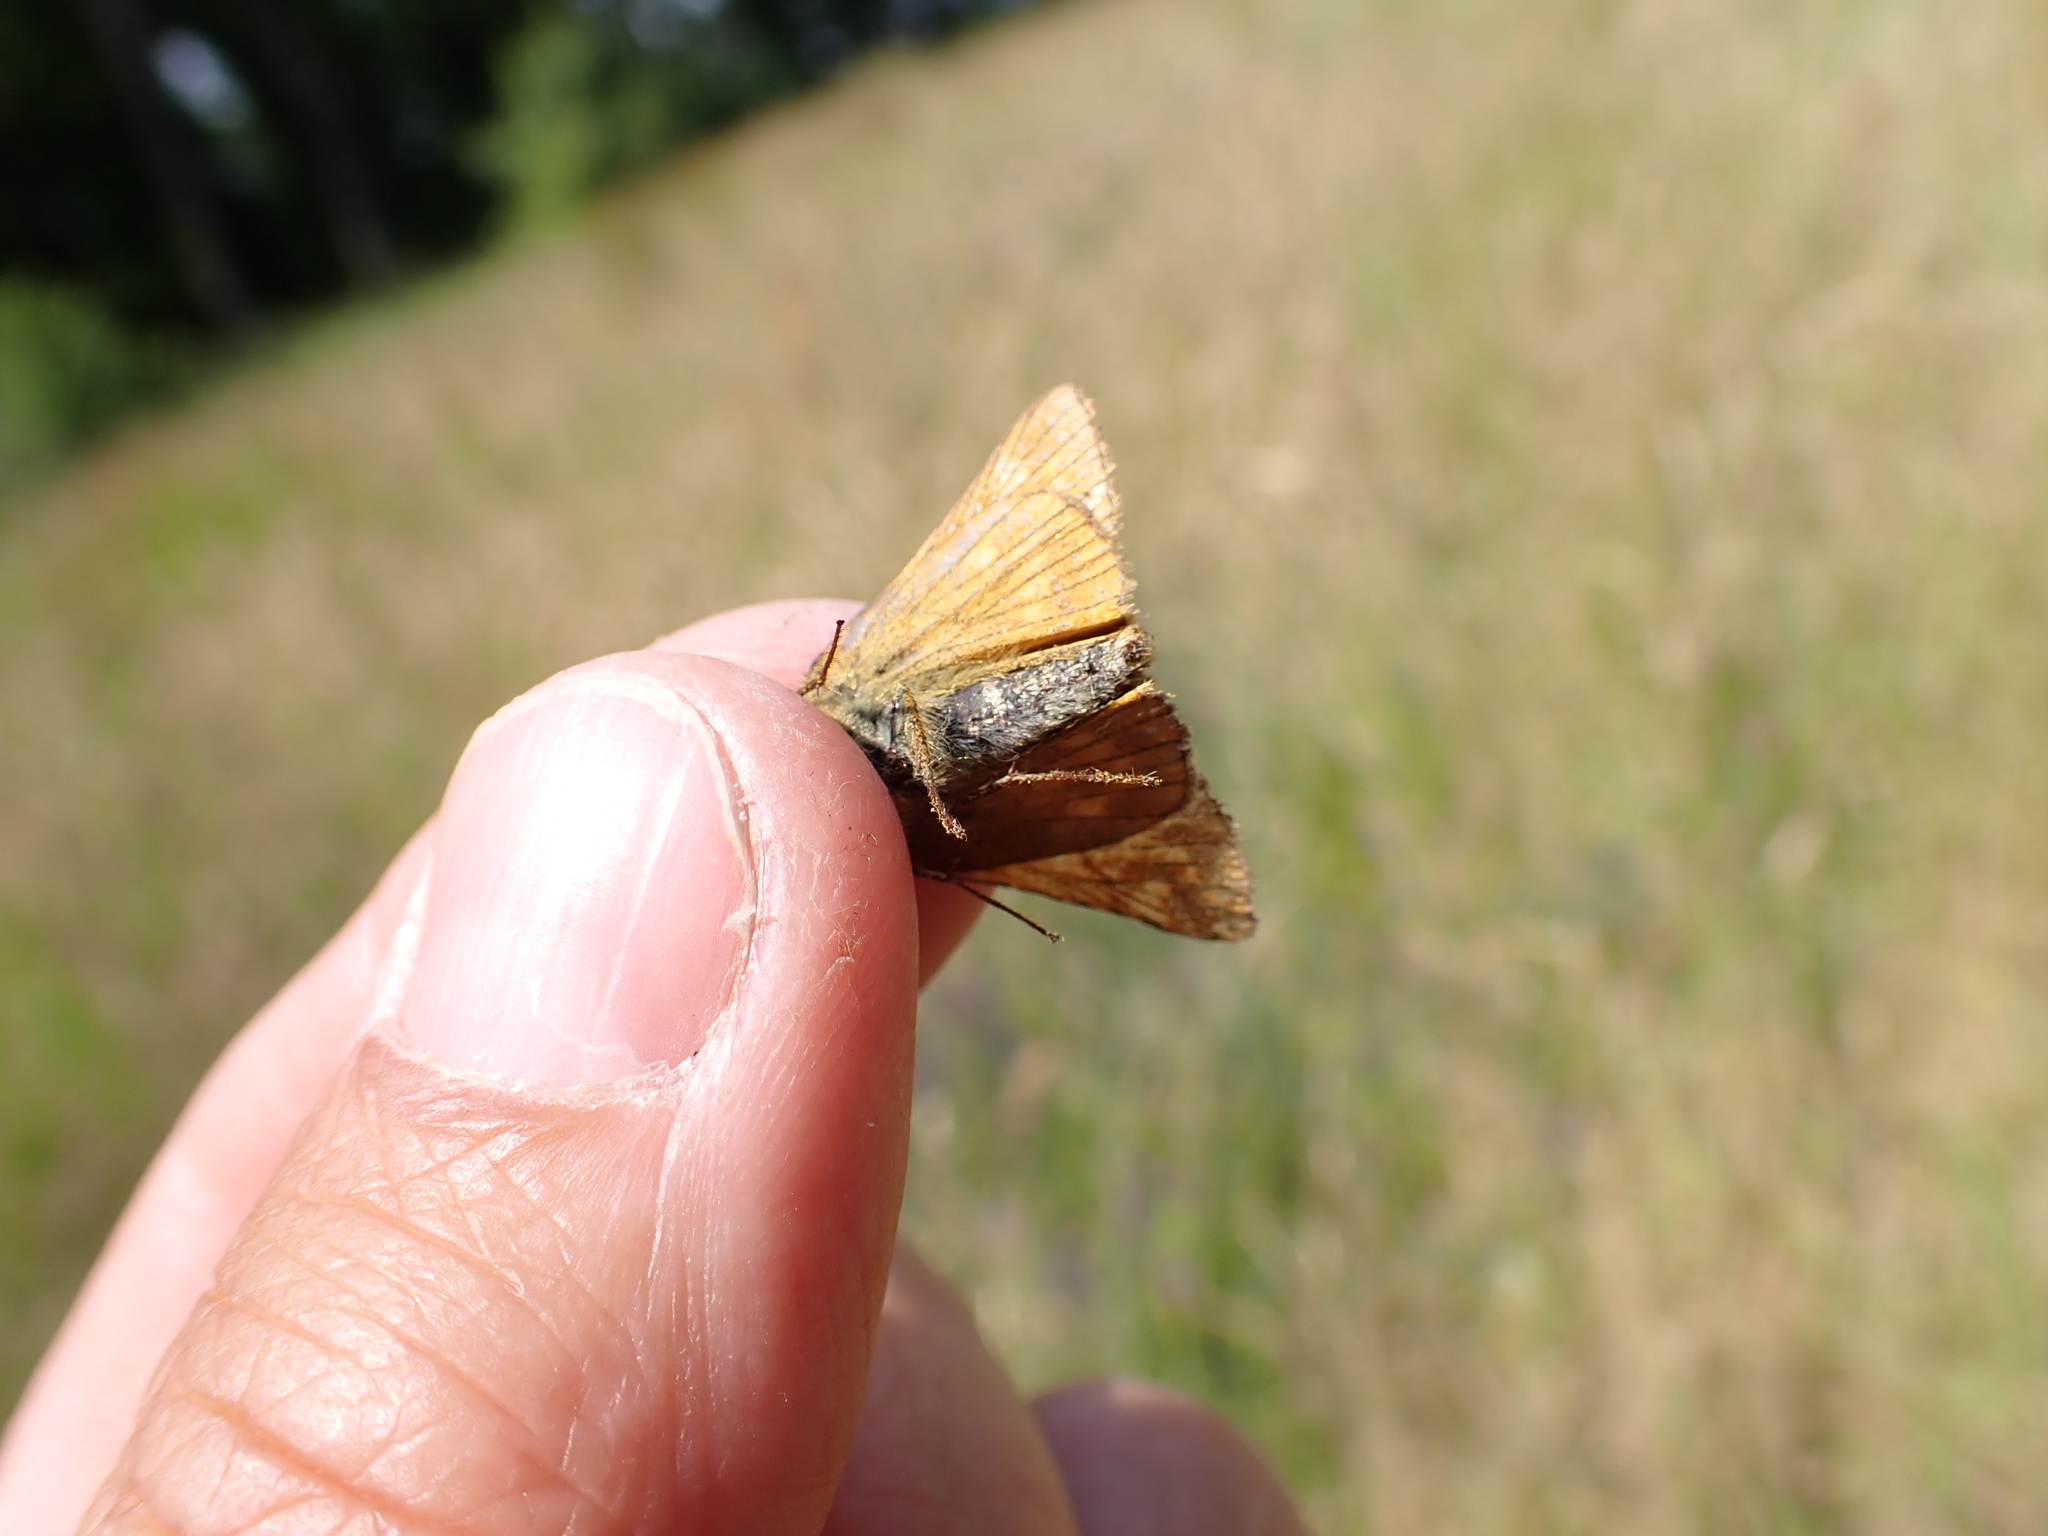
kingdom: Animalia
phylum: Arthropoda
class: Insecta
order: Lepidoptera
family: Hesperiidae
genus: Ochlodes
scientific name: Ochlodes venata
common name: Large skipper
